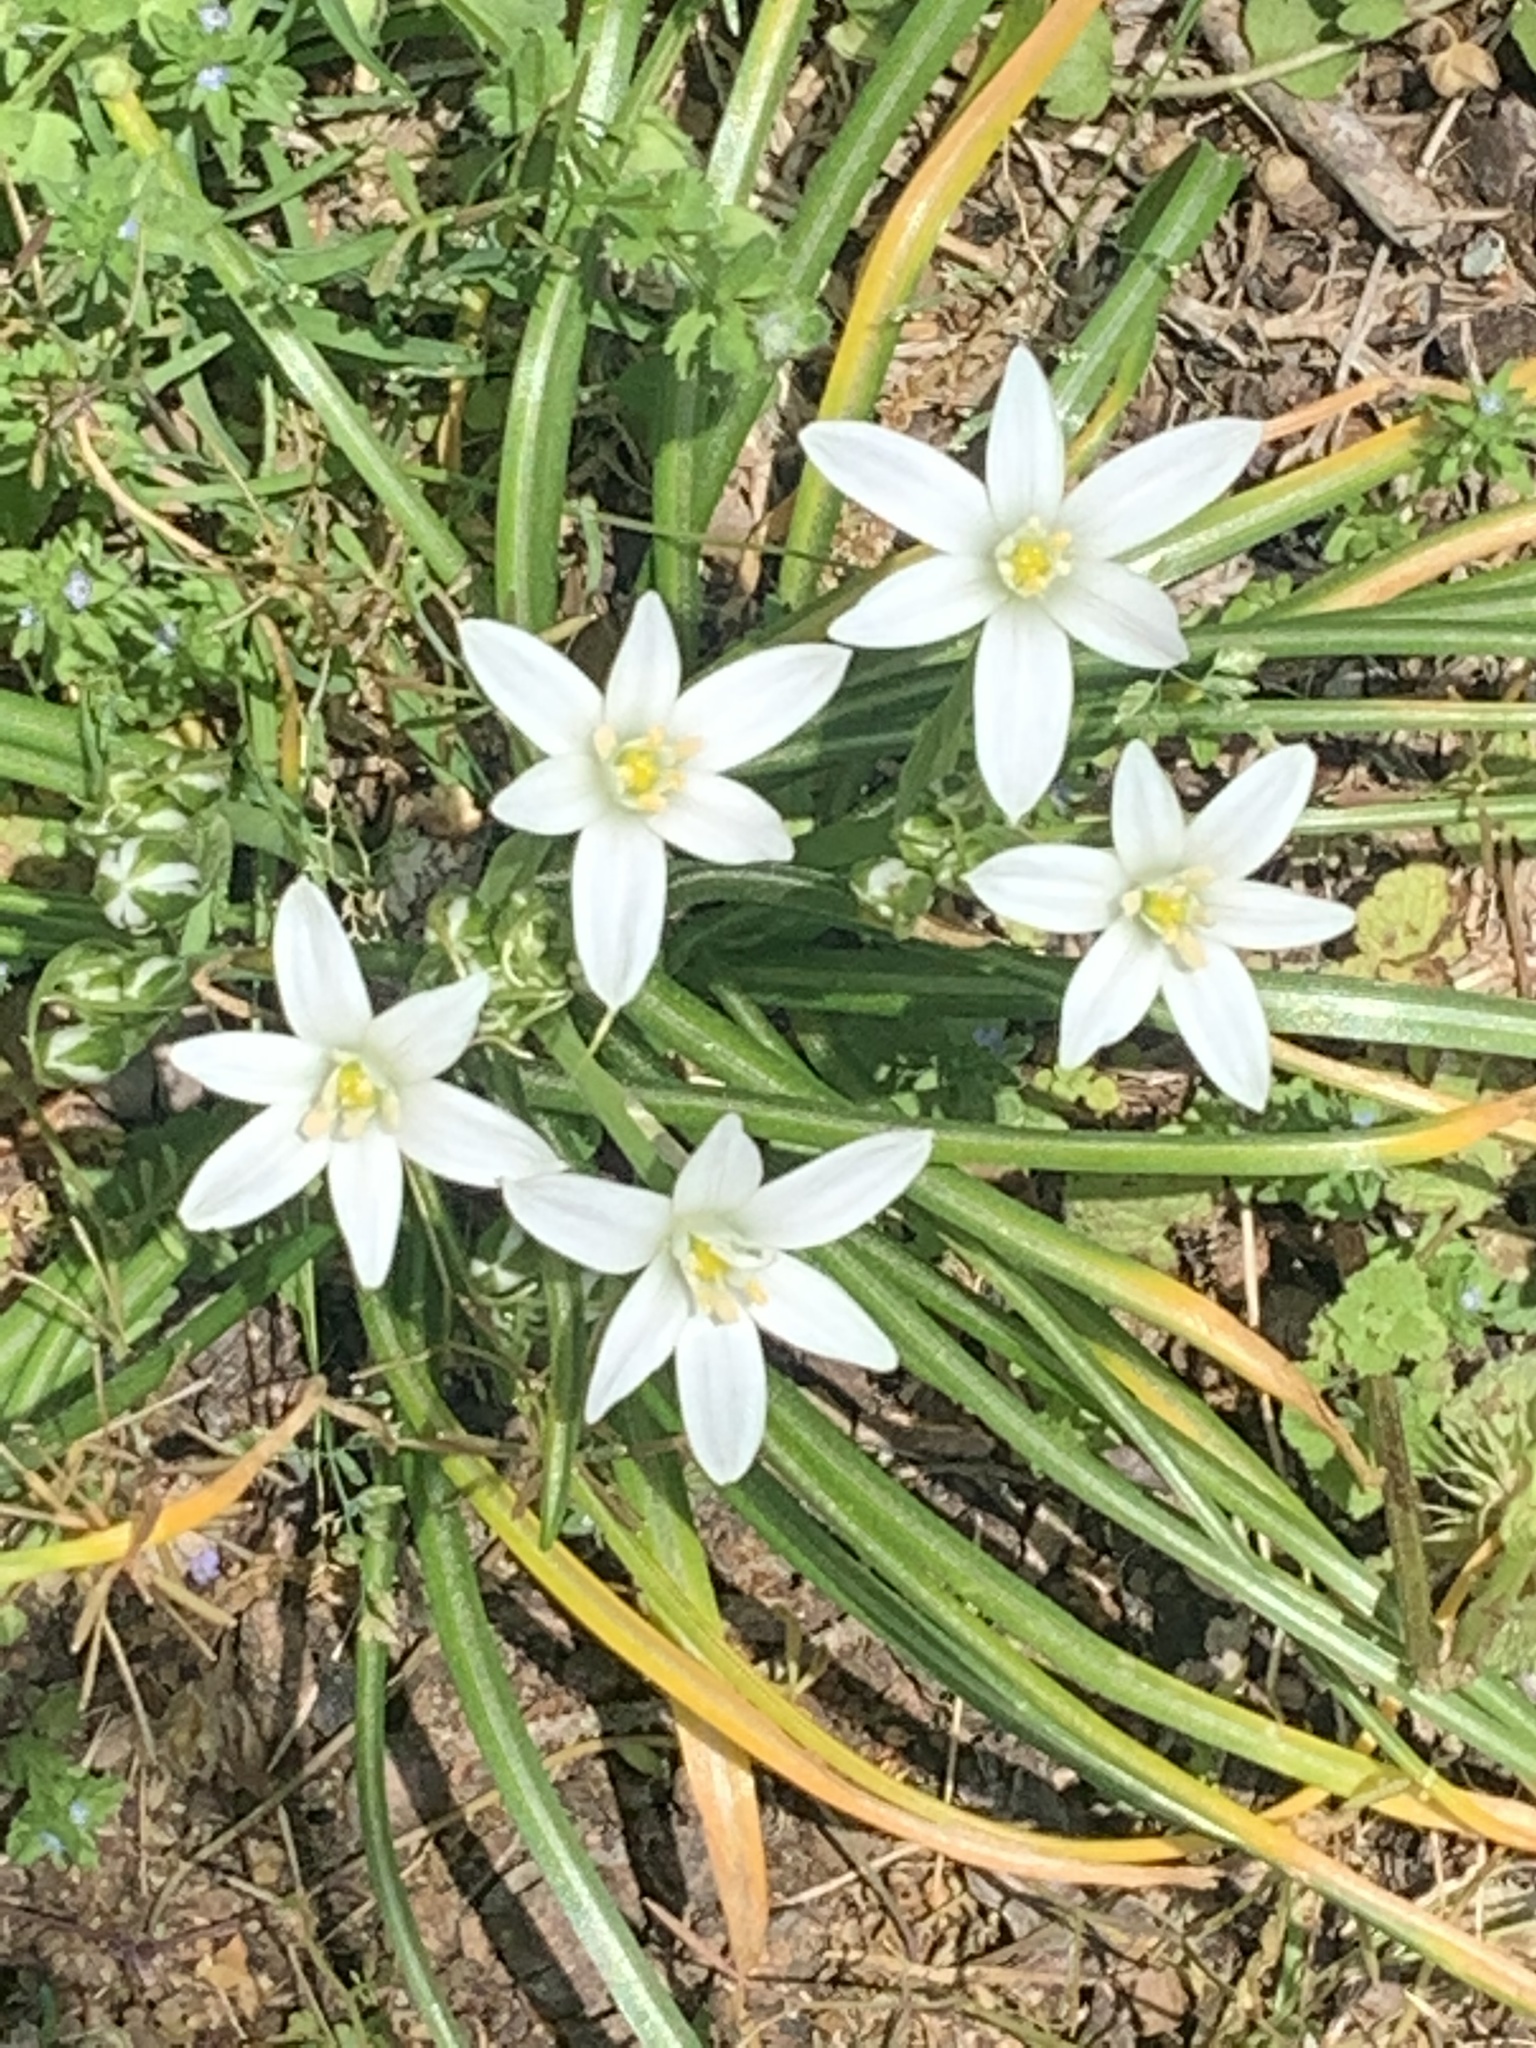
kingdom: Plantae
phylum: Tracheophyta
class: Liliopsida
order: Asparagales
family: Asparagaceae
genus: Ornithogalum
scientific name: Ornithogalum umbellatum
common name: Garden star-of-bethlehem
